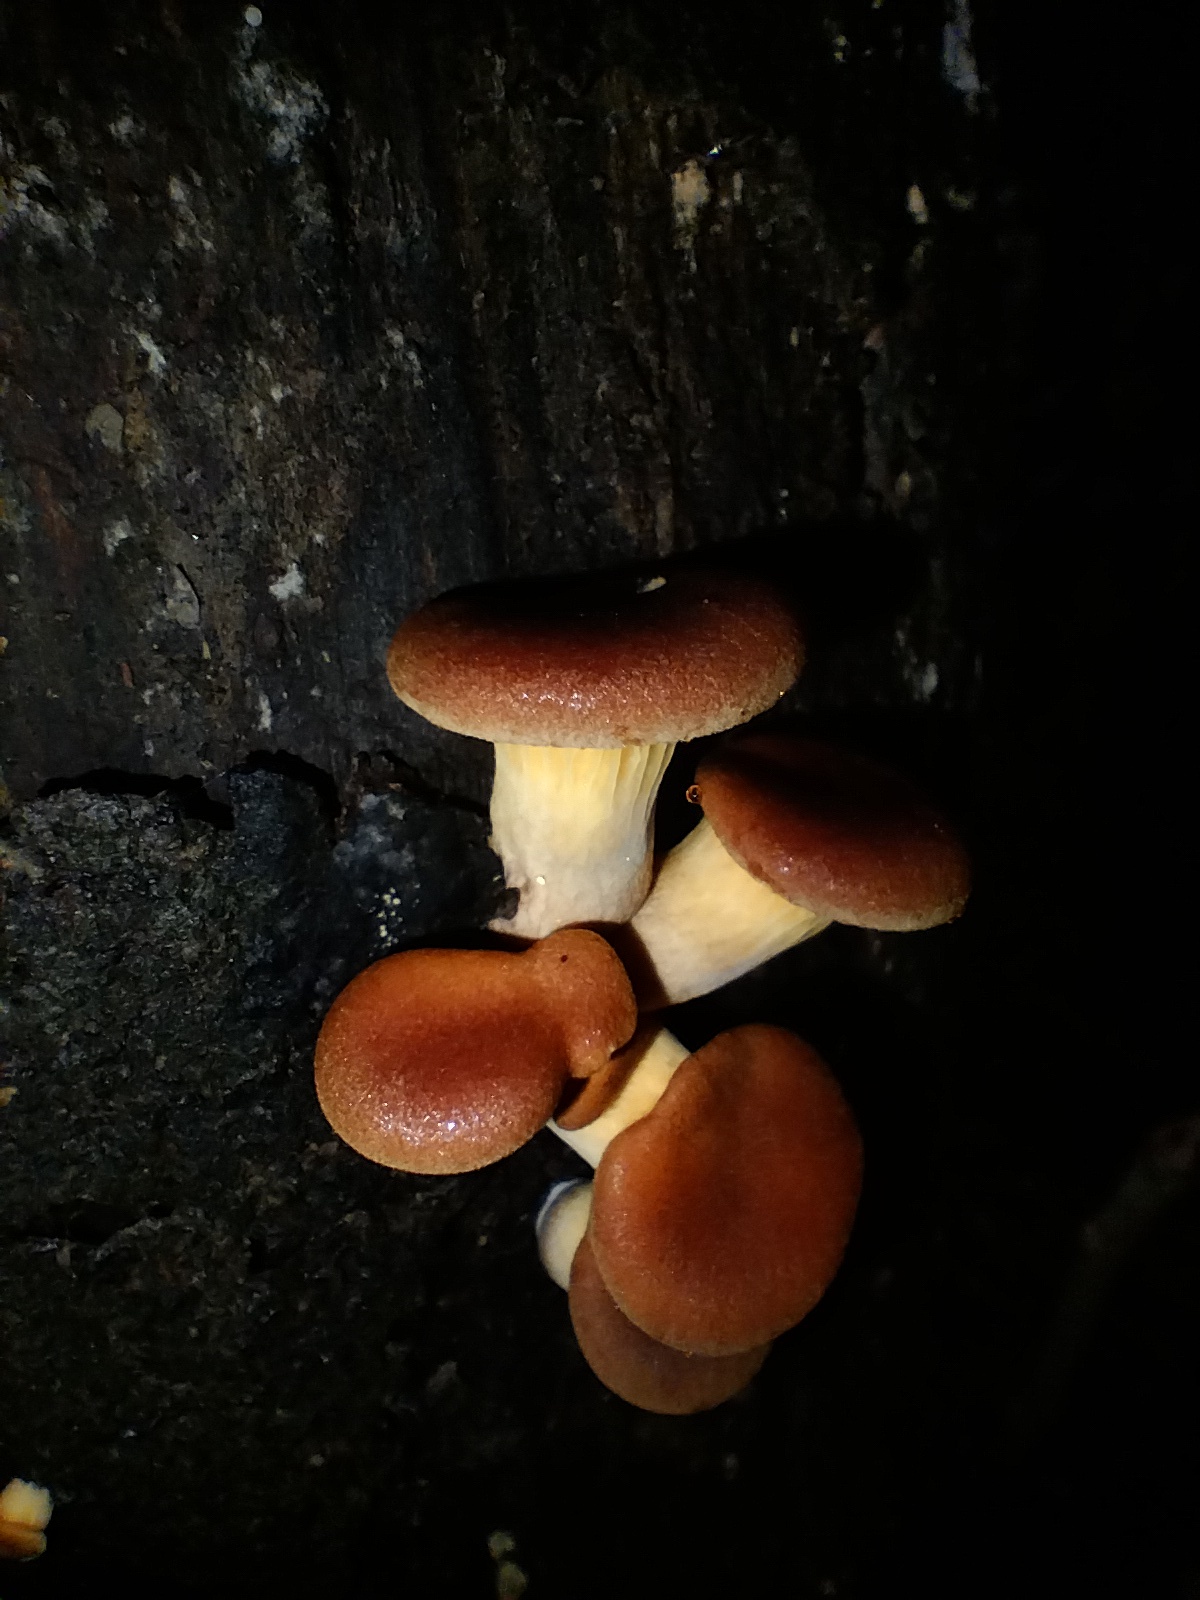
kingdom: Fungi
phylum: Basidiomycota
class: Agaricomycetes
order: Agaricales
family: Omphalotaceae
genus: Omphalotus
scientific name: Omphalotus nidiformis
